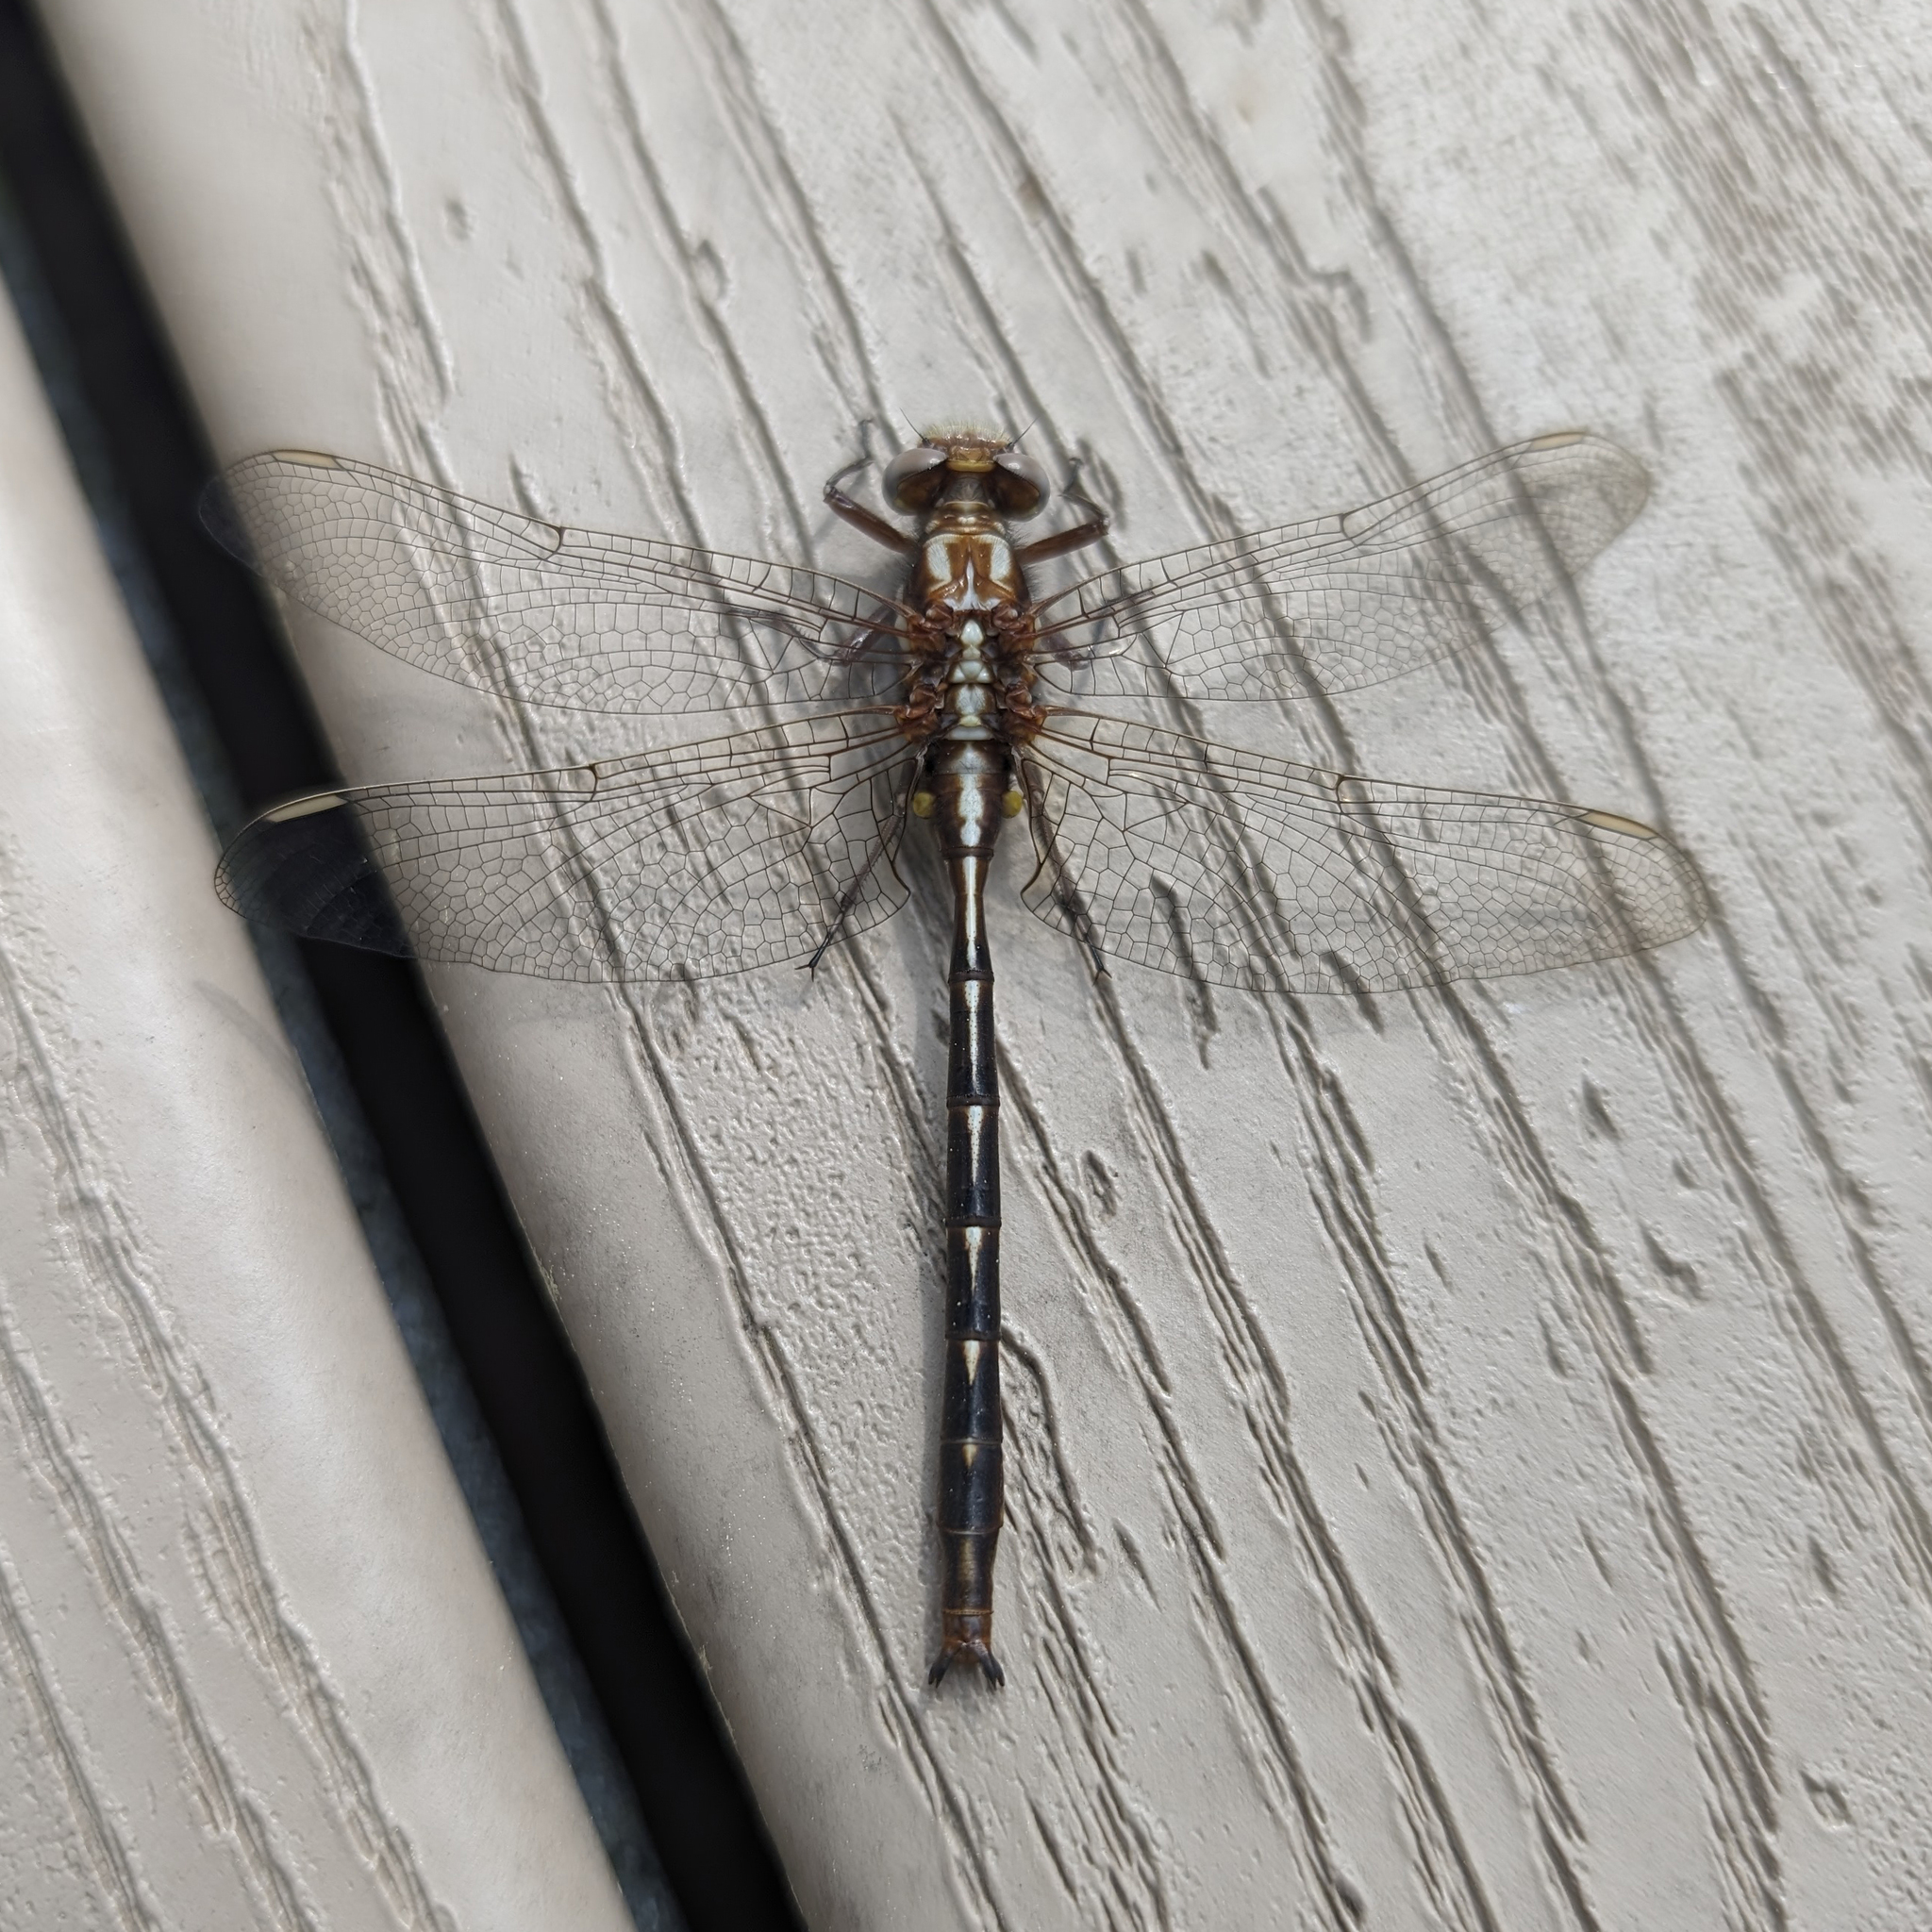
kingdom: Animalia
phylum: Arthropoda
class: Insecta
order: Odonata
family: Gomphidae
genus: Phanogomphus
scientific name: Phanogomphus lividus
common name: Ashy clubtail
